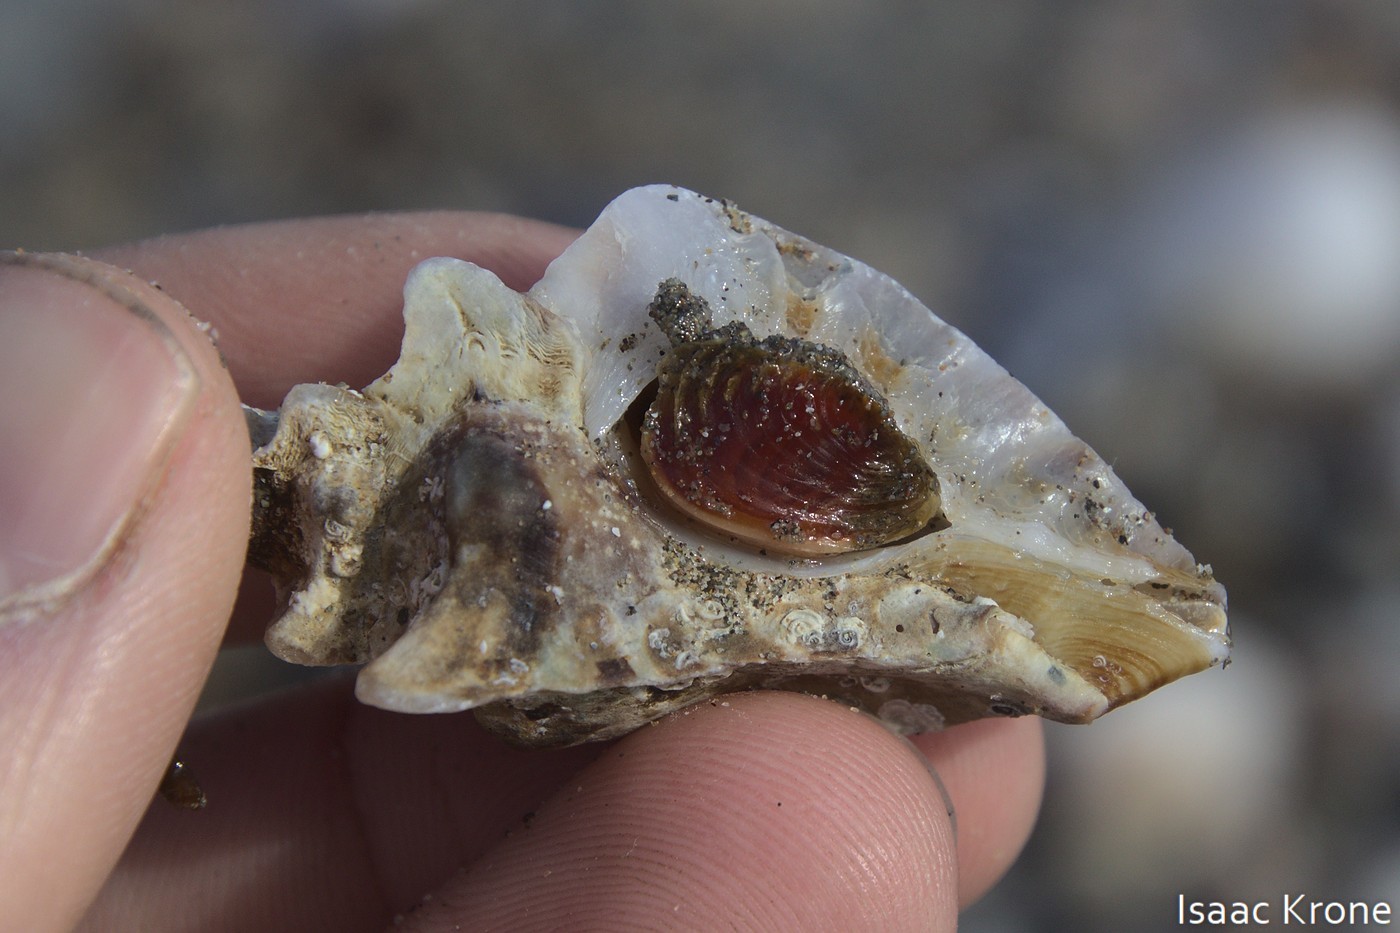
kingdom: Animalia
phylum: Mollusca
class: Gastropoda
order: Neogastropoda
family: Muricidae
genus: Pteropurpura
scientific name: Pteropurpura trialata
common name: Three-winged murex
